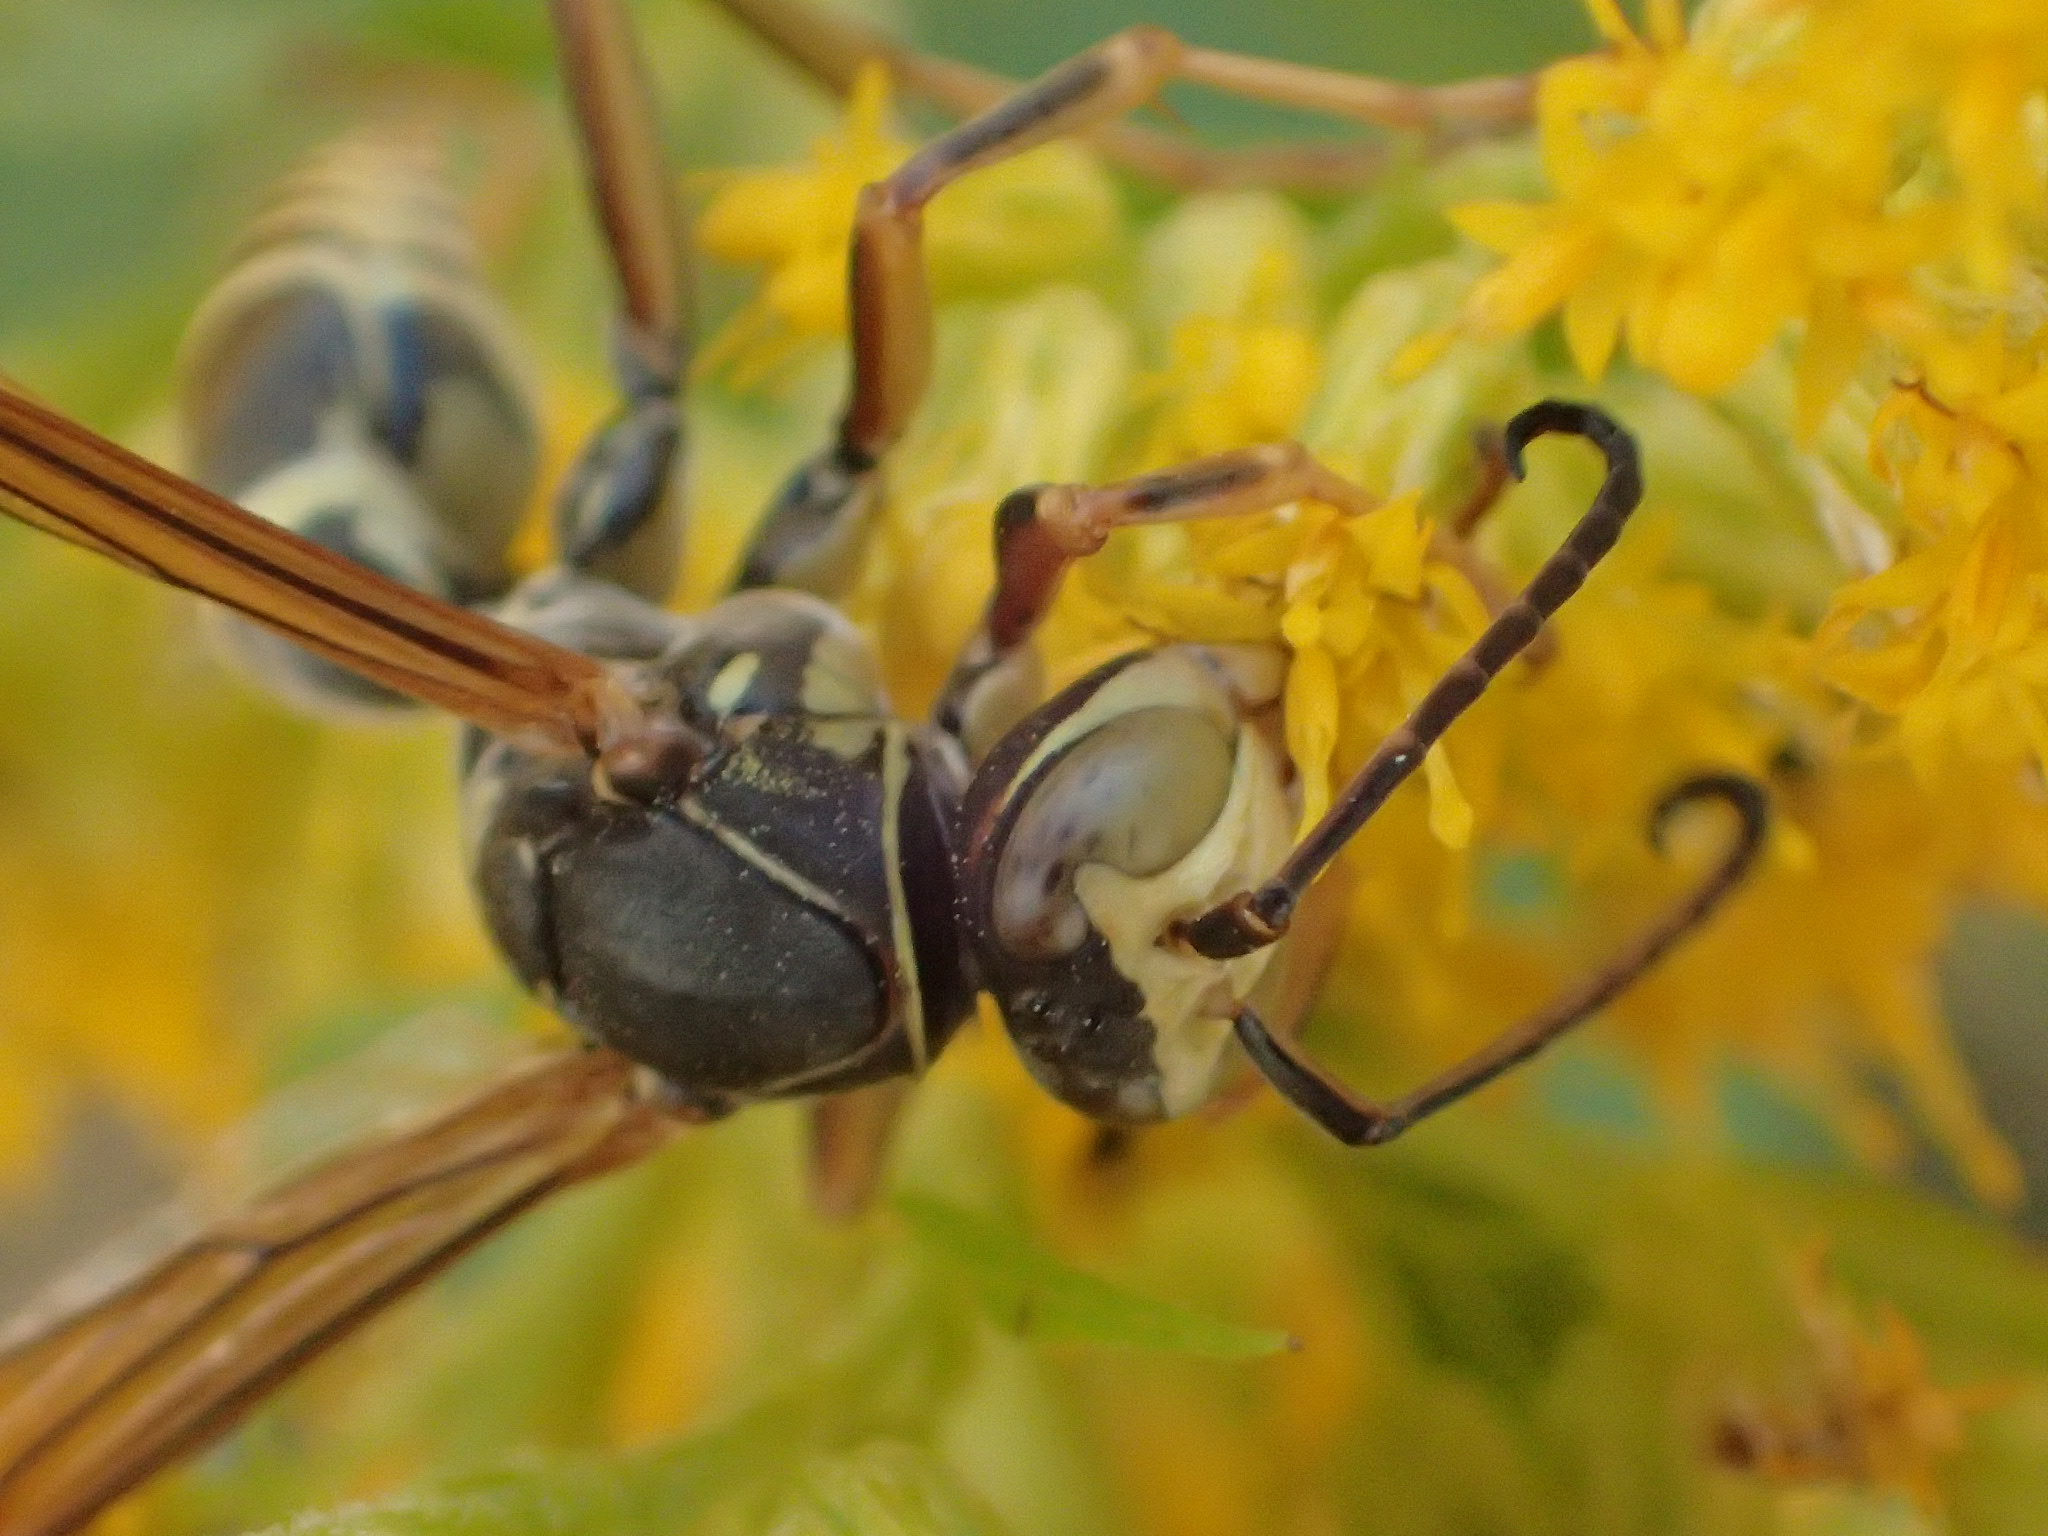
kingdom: Animalia
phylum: Arthropoda
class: Insecta
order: Hymenoptera
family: Eumenidae
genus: Polistes
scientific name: Polistes fuscatus
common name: Dark paper wasp
